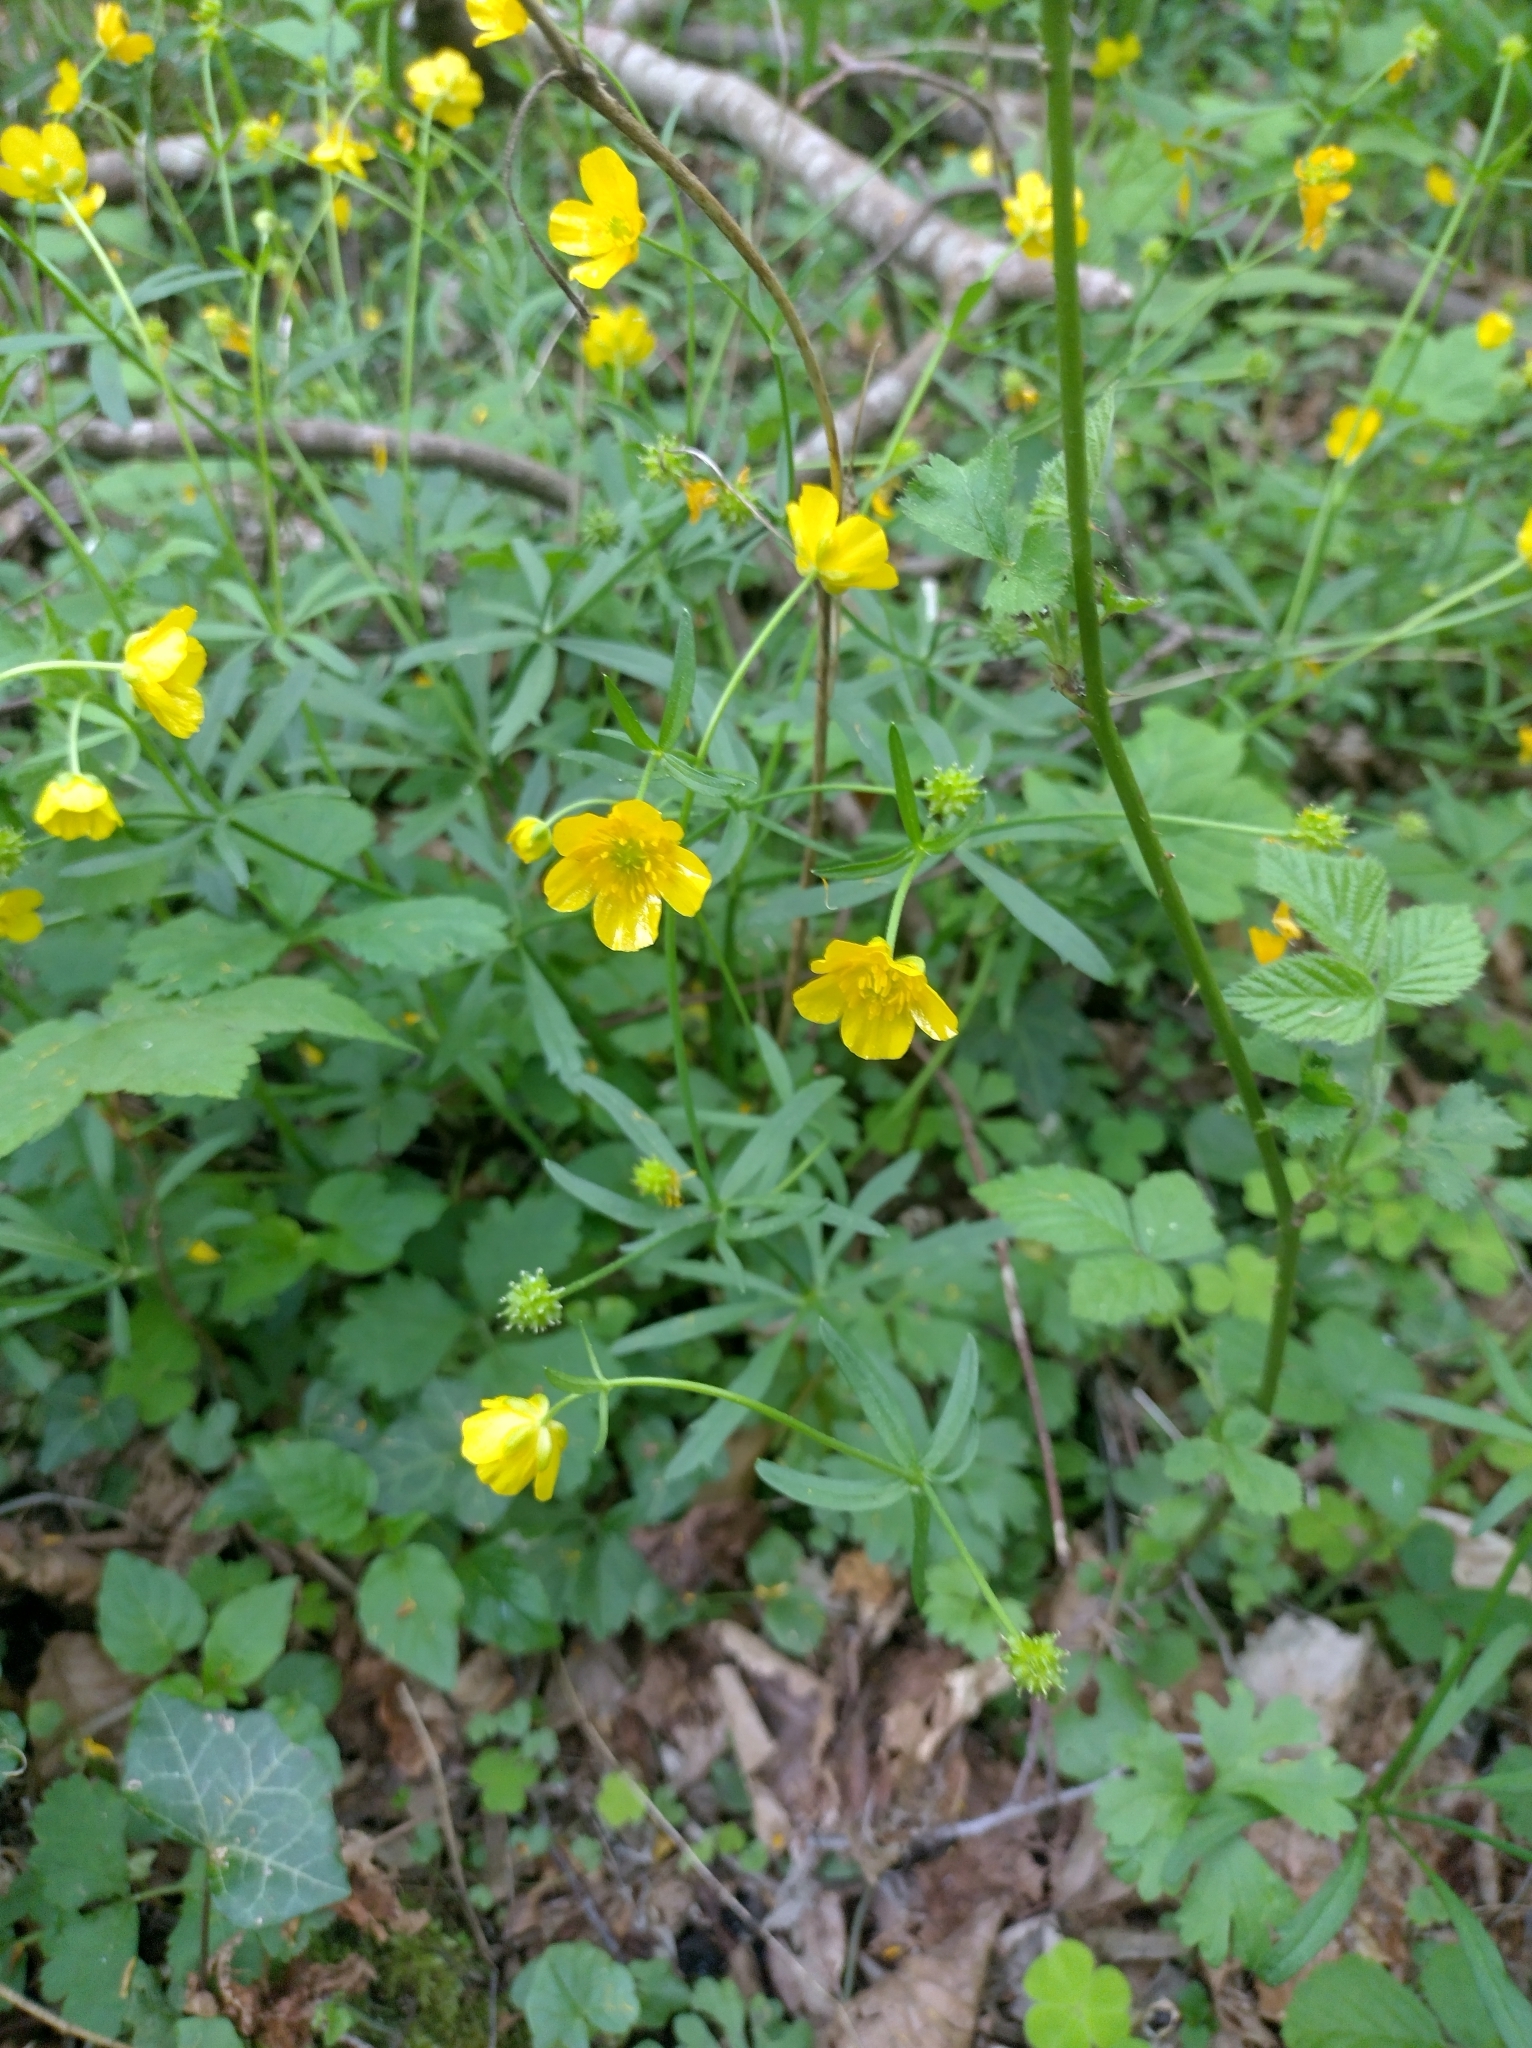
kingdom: Plantae
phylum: Tracheophyta
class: Magnoliopsida
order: Ranunculales
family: Ranunculaceae
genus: Ranunculus
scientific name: Ranunculus auricomus
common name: Goldilocks buttercup
